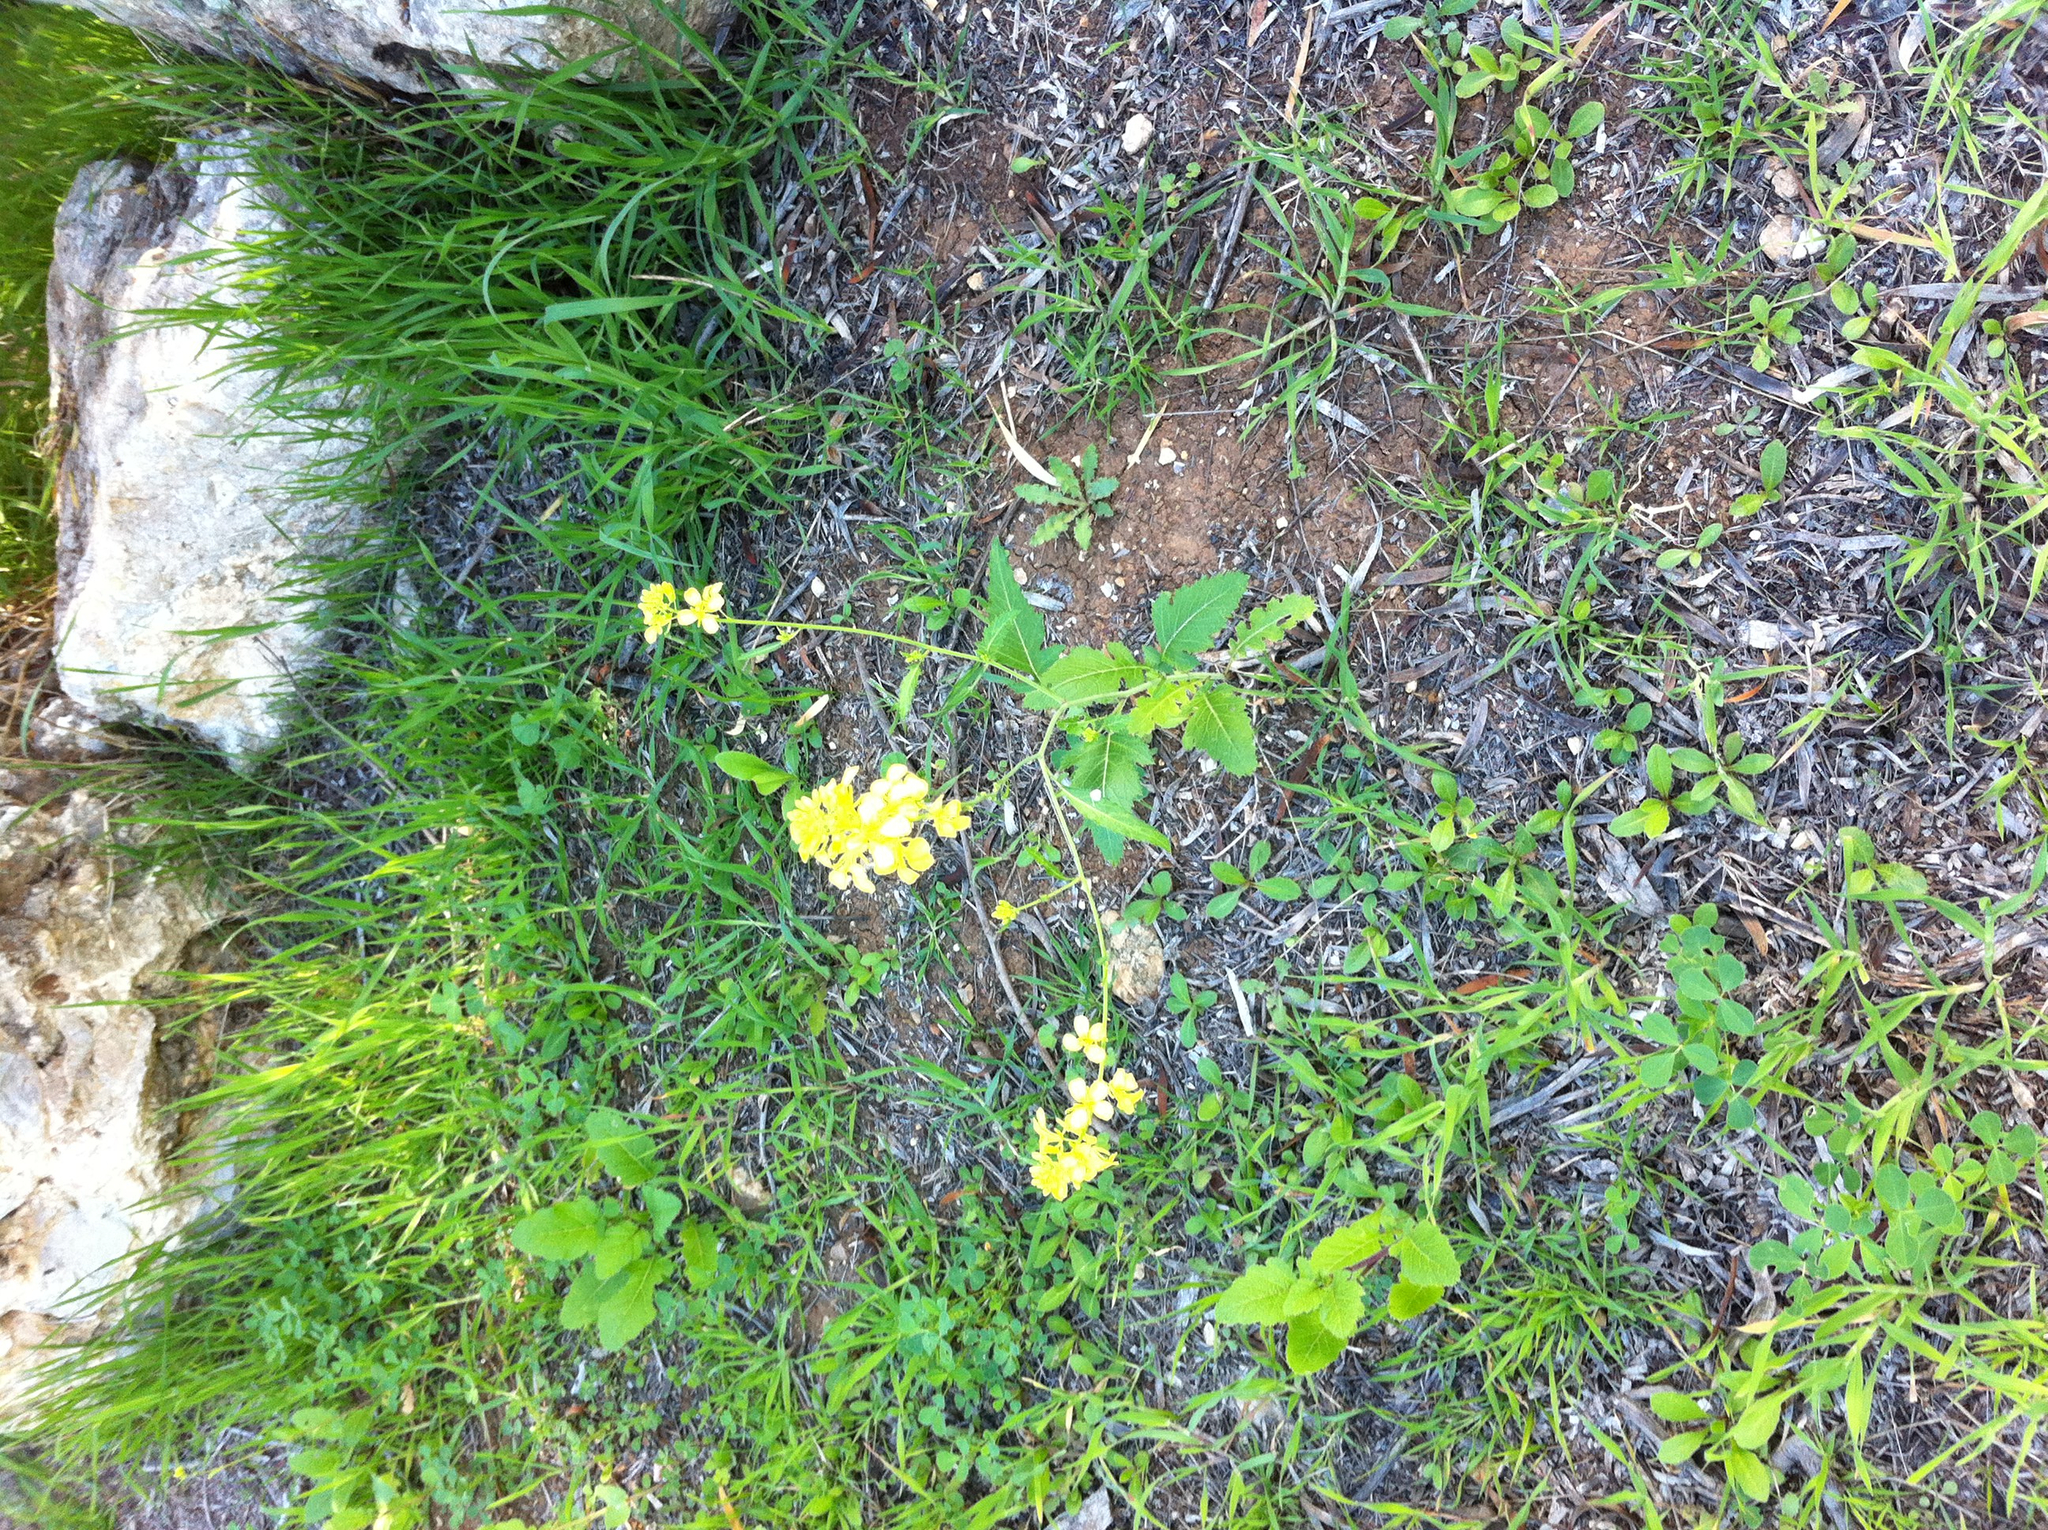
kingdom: Plantae
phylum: Tracheophyta
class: Magnoliopsida
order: Brassicales
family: Brassicaceae
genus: Brassica
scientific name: Brassica nigra
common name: Black mustard
